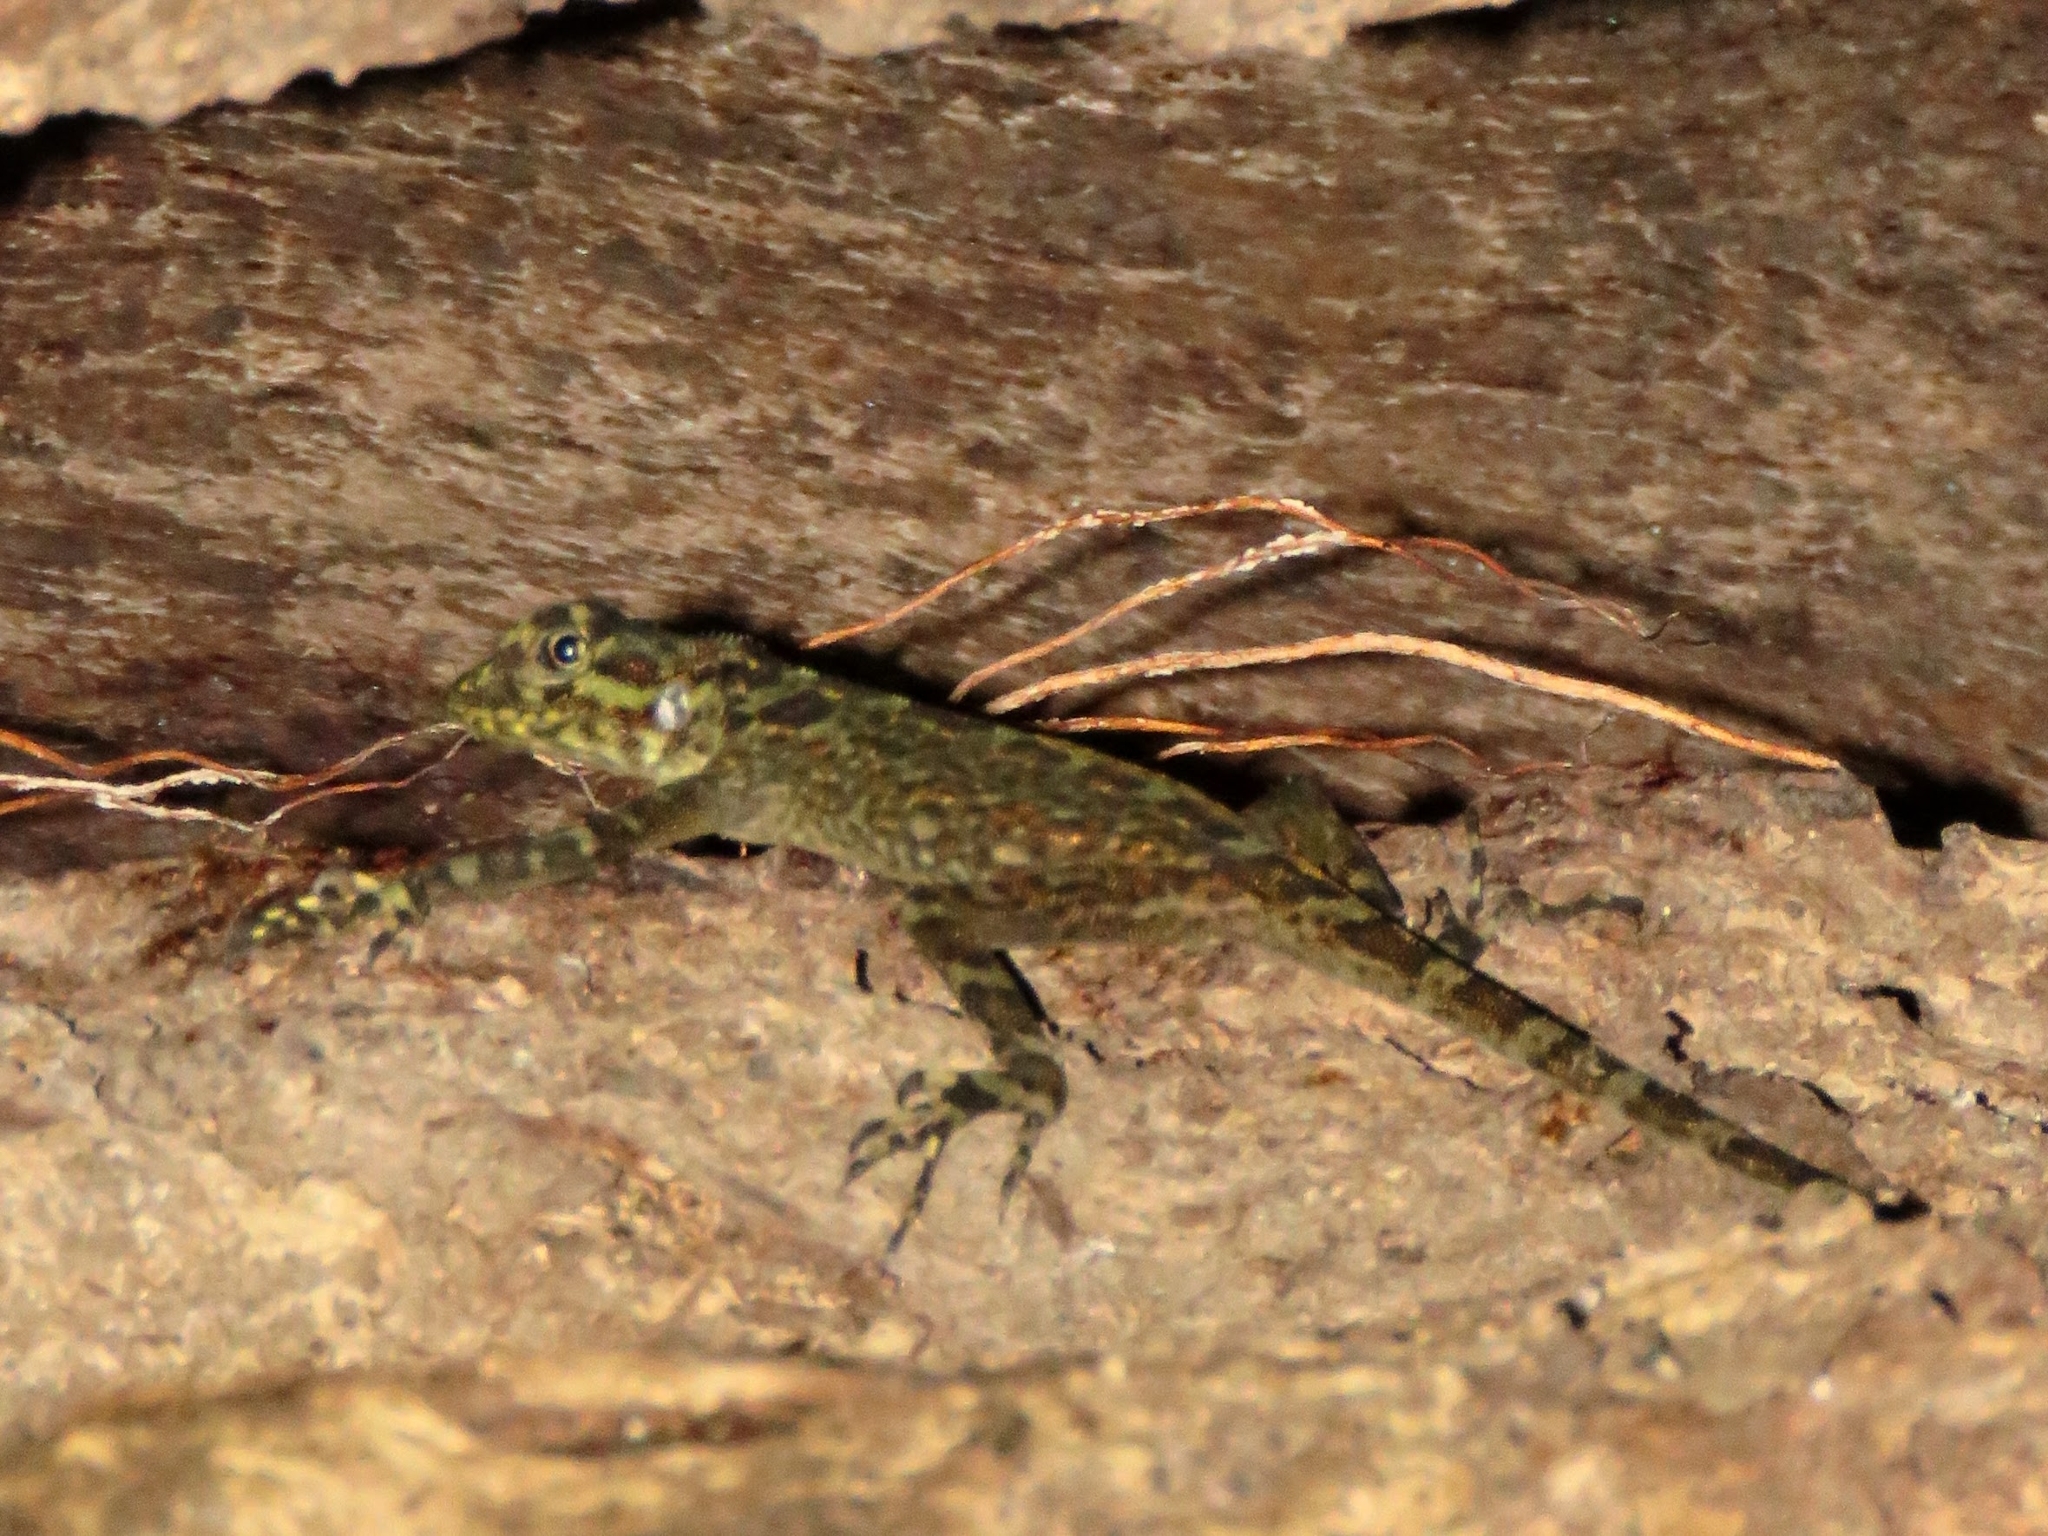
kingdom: Animalia
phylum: Chordata
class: Squamata
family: Tropiduridae
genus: Plica
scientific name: Plica plica
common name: Tree runner
